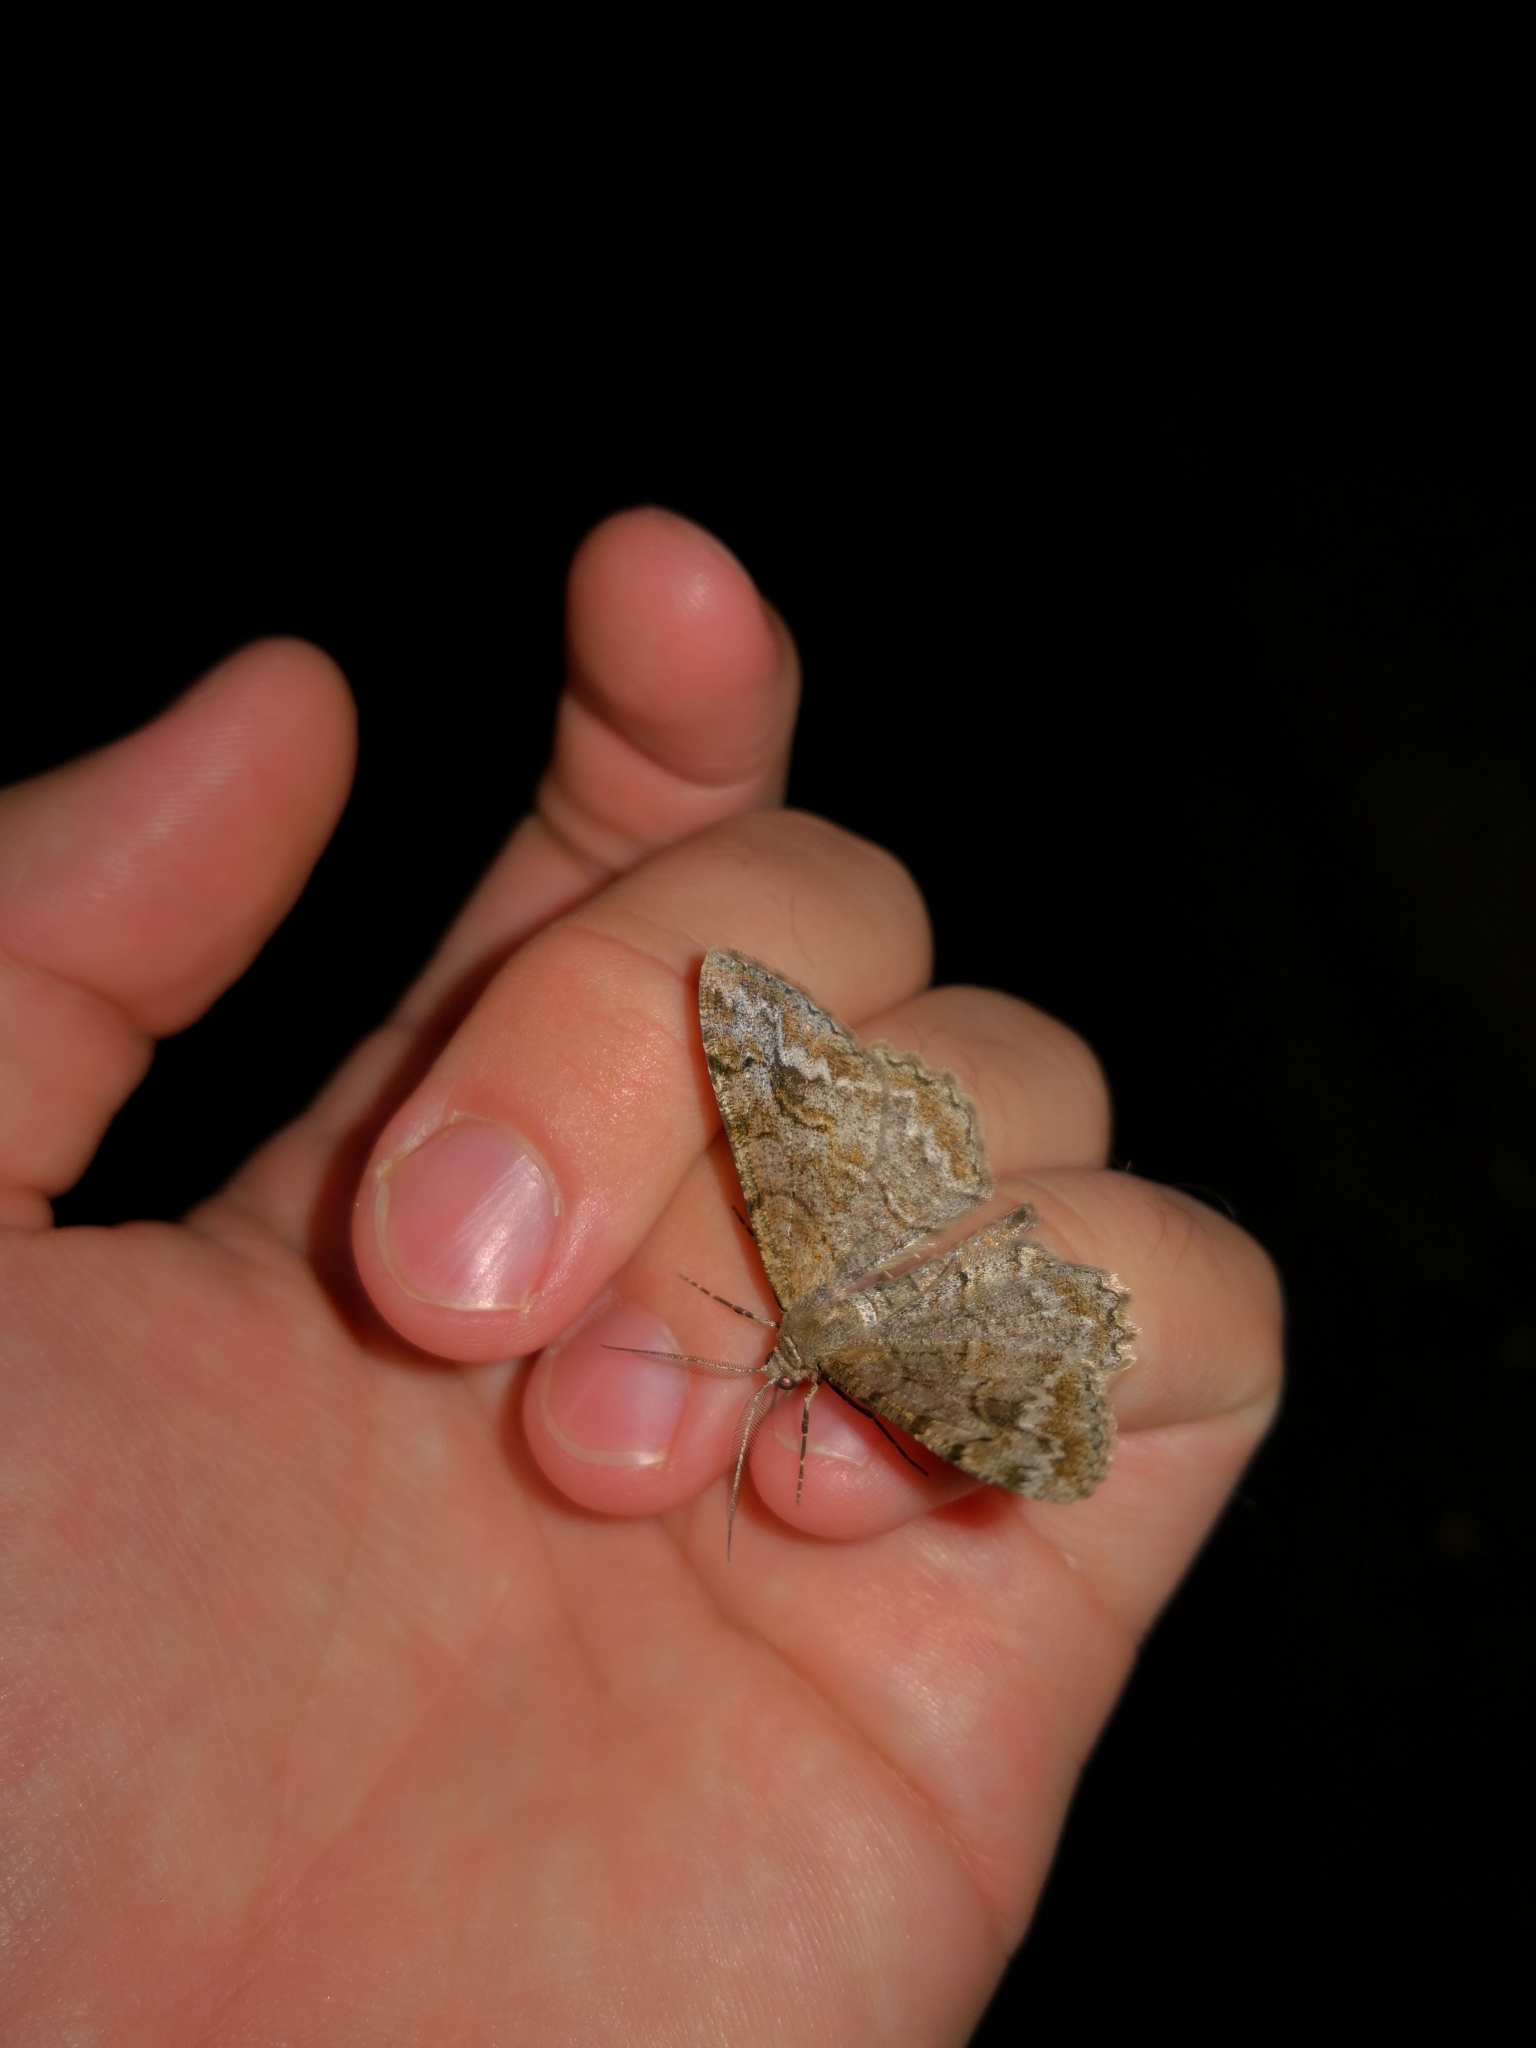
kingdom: Animalia
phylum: Arthropoda
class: Insecta
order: Lepidoptera
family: Geometridae
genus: Alcis
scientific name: Alcis repandata
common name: Mottled beauty
